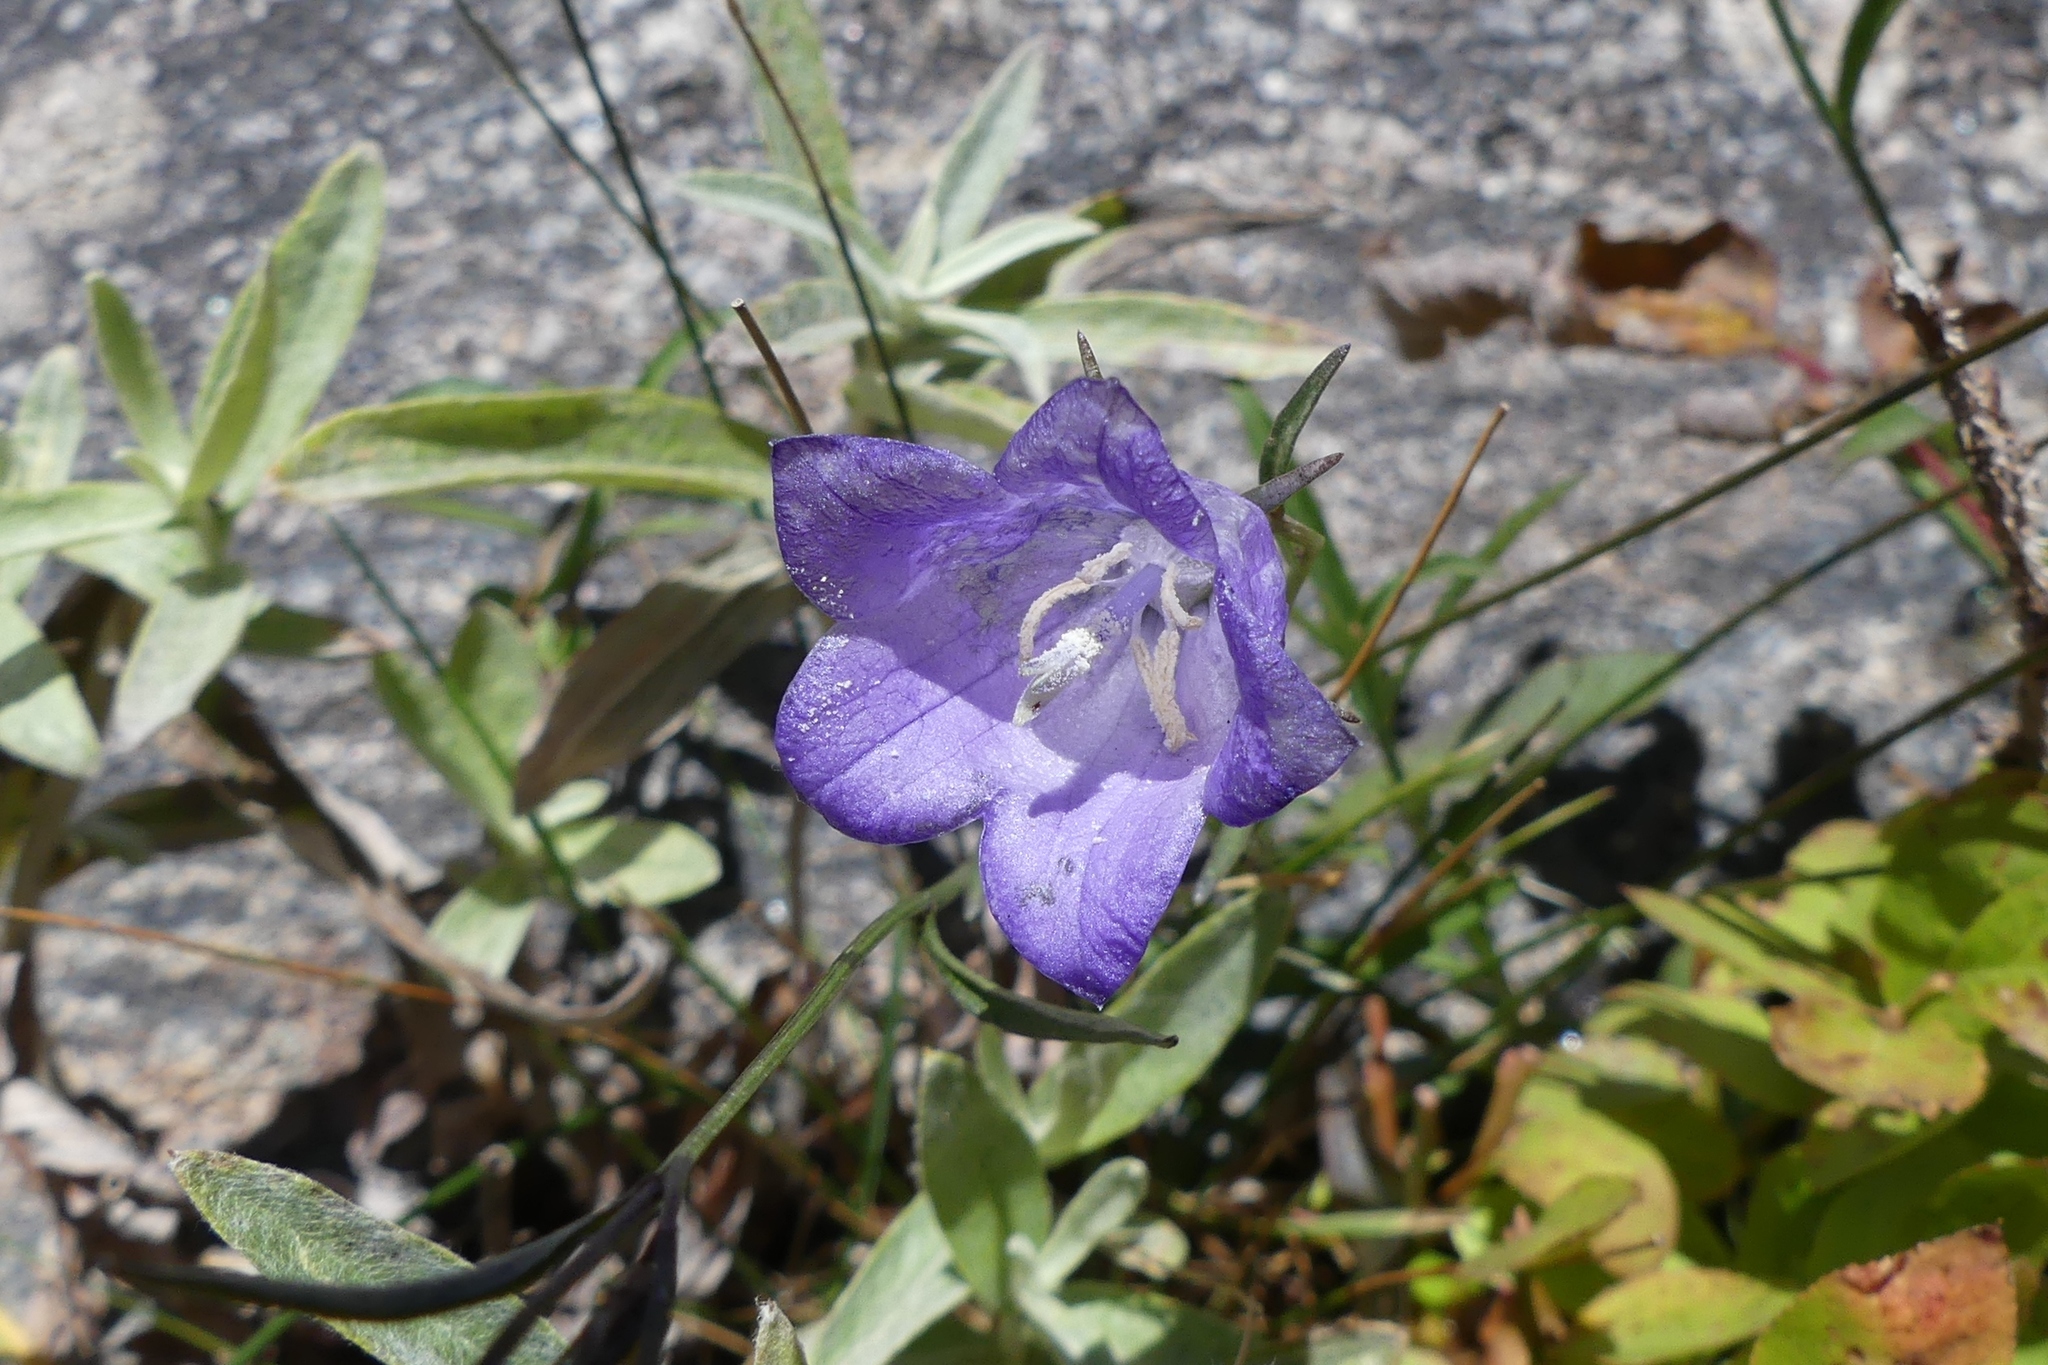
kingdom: Plantae
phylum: Tracheophyta
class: Magnoliopsida
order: Asterales
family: Campanulaceae
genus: Campanula
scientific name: Campanula petiolata
